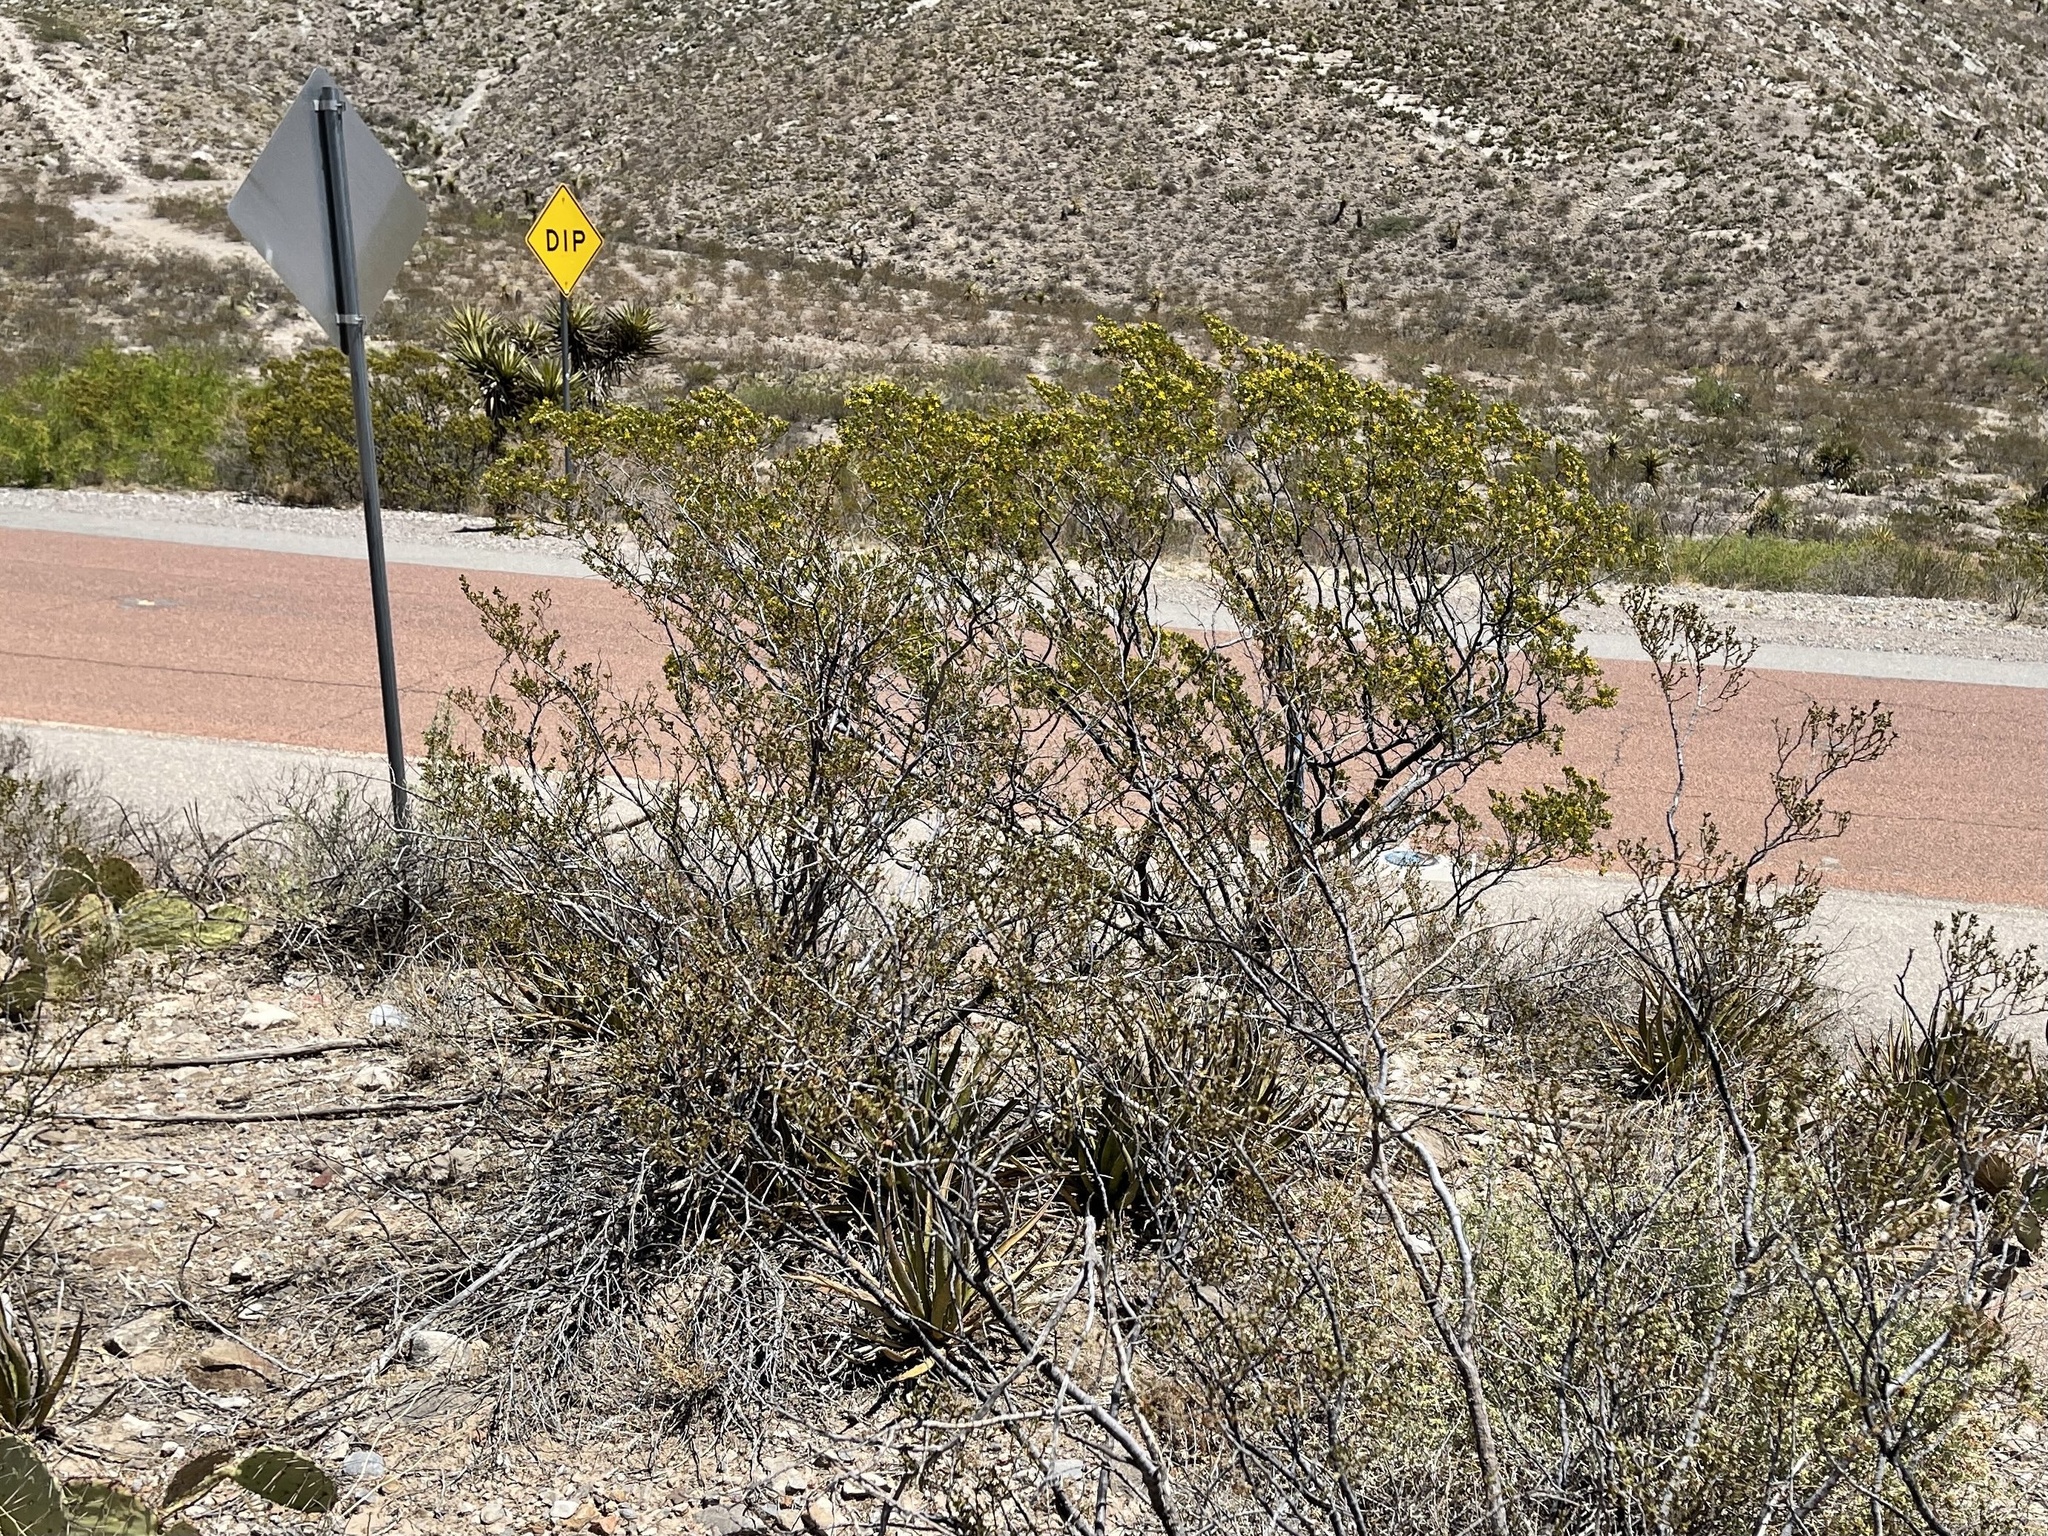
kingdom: Plantae
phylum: Tracheophyta
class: Magnoliopsida
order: Zygophyllales
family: Zygophyllaceae
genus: Larrea
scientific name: Larrea tridentata
